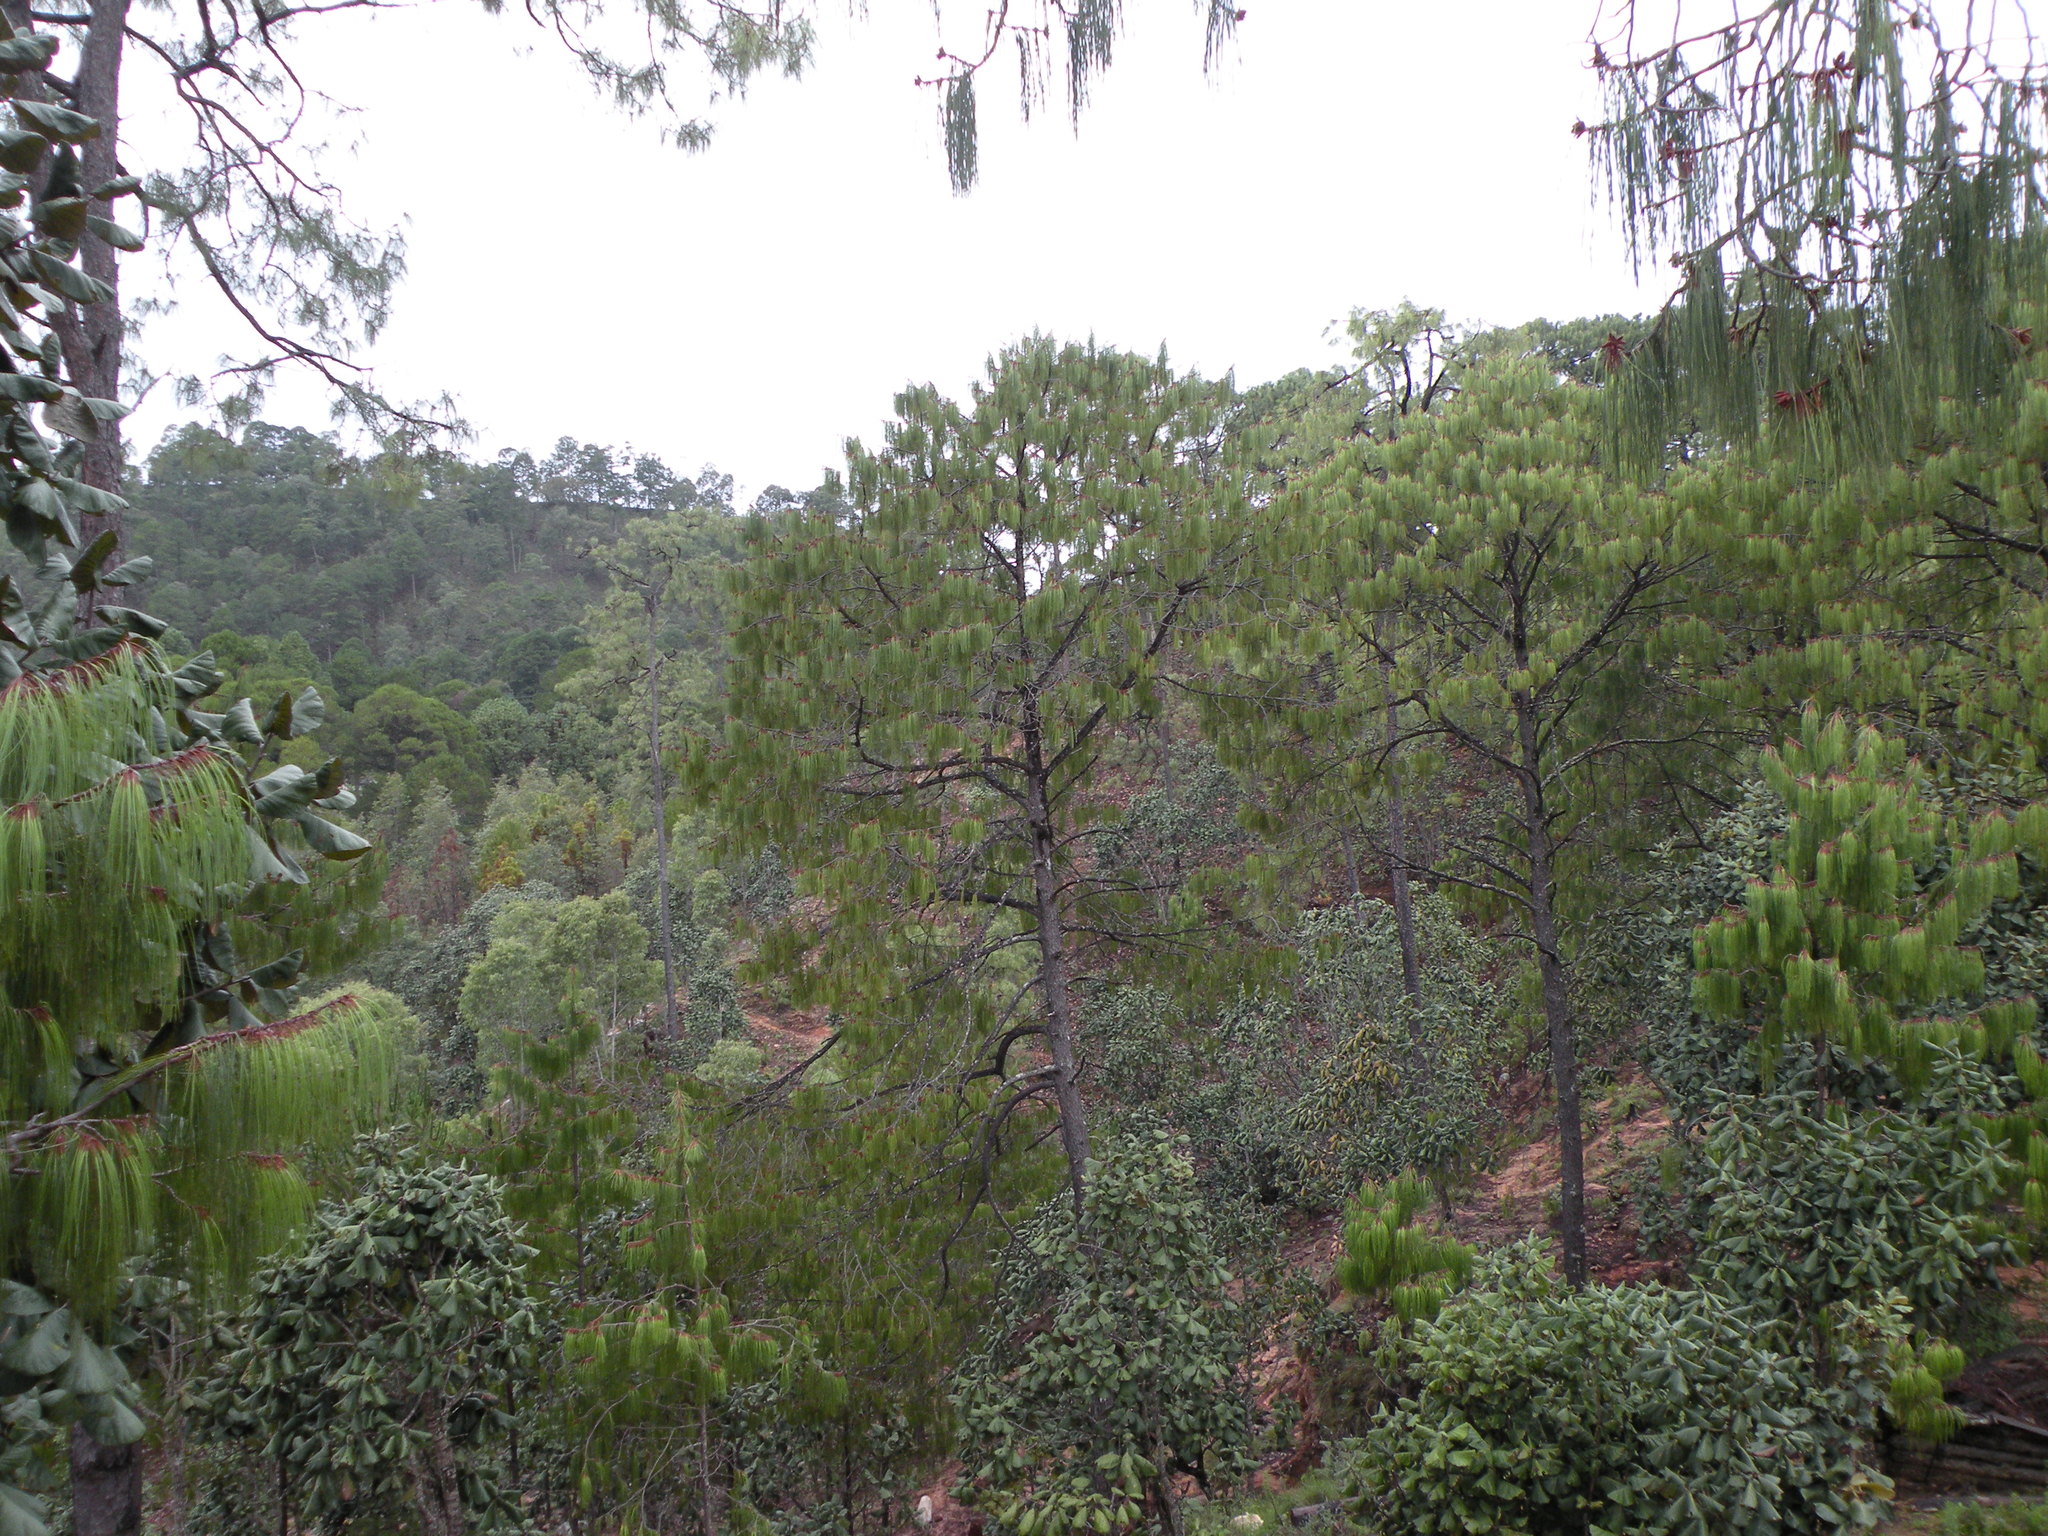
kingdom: Plantae
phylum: Tracheophyta
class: Pinopsida
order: Pinales
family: Pinaceae
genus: Pinus
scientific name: Pinus lumholtzii
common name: Lumholtz's pine
